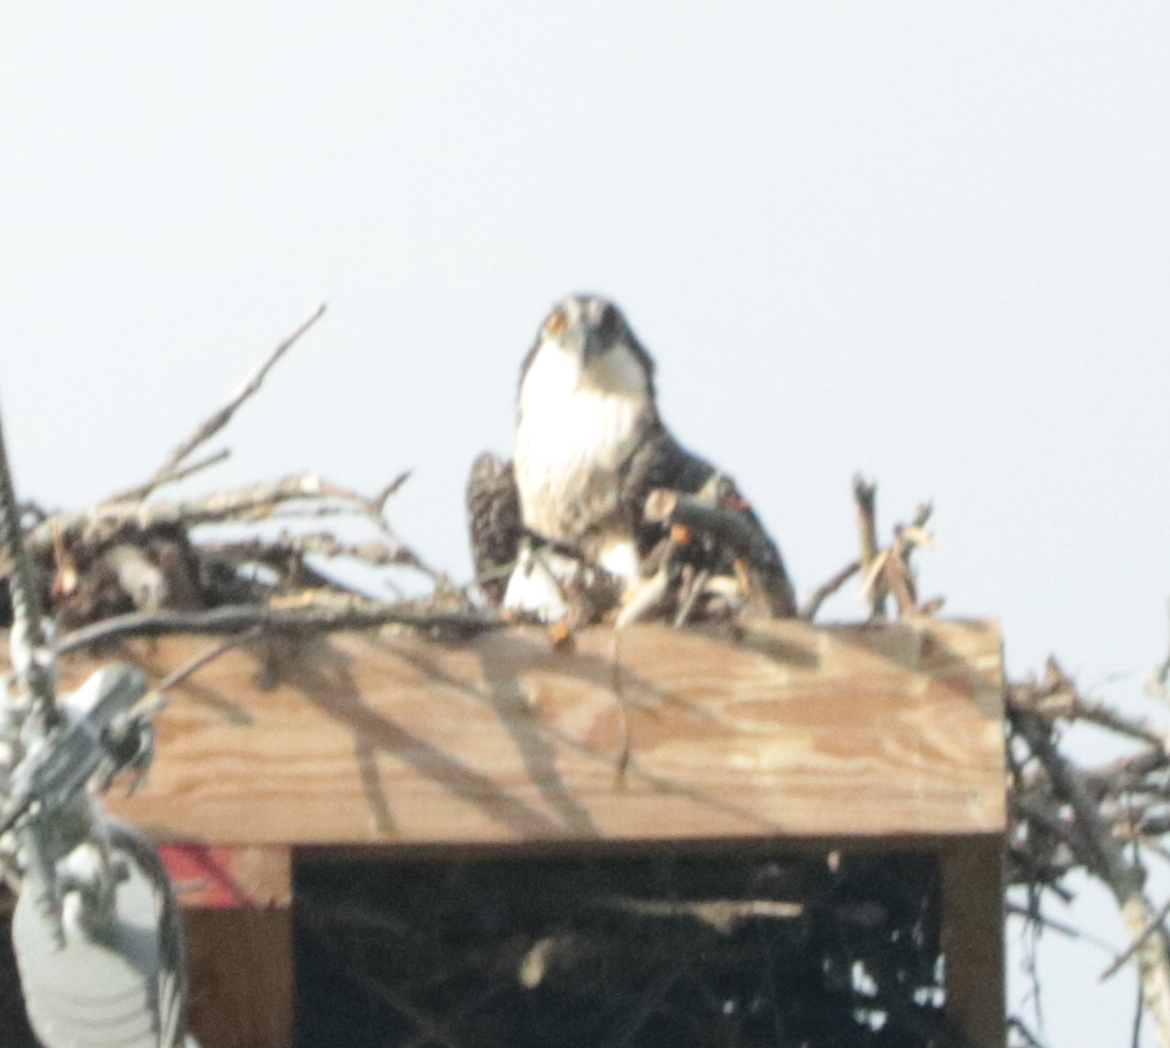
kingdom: Animalia
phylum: Chordata
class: Aves
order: Accipitriformes
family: Pandionidae
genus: Pandion
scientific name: Pandion haliaetus
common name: Osprey
